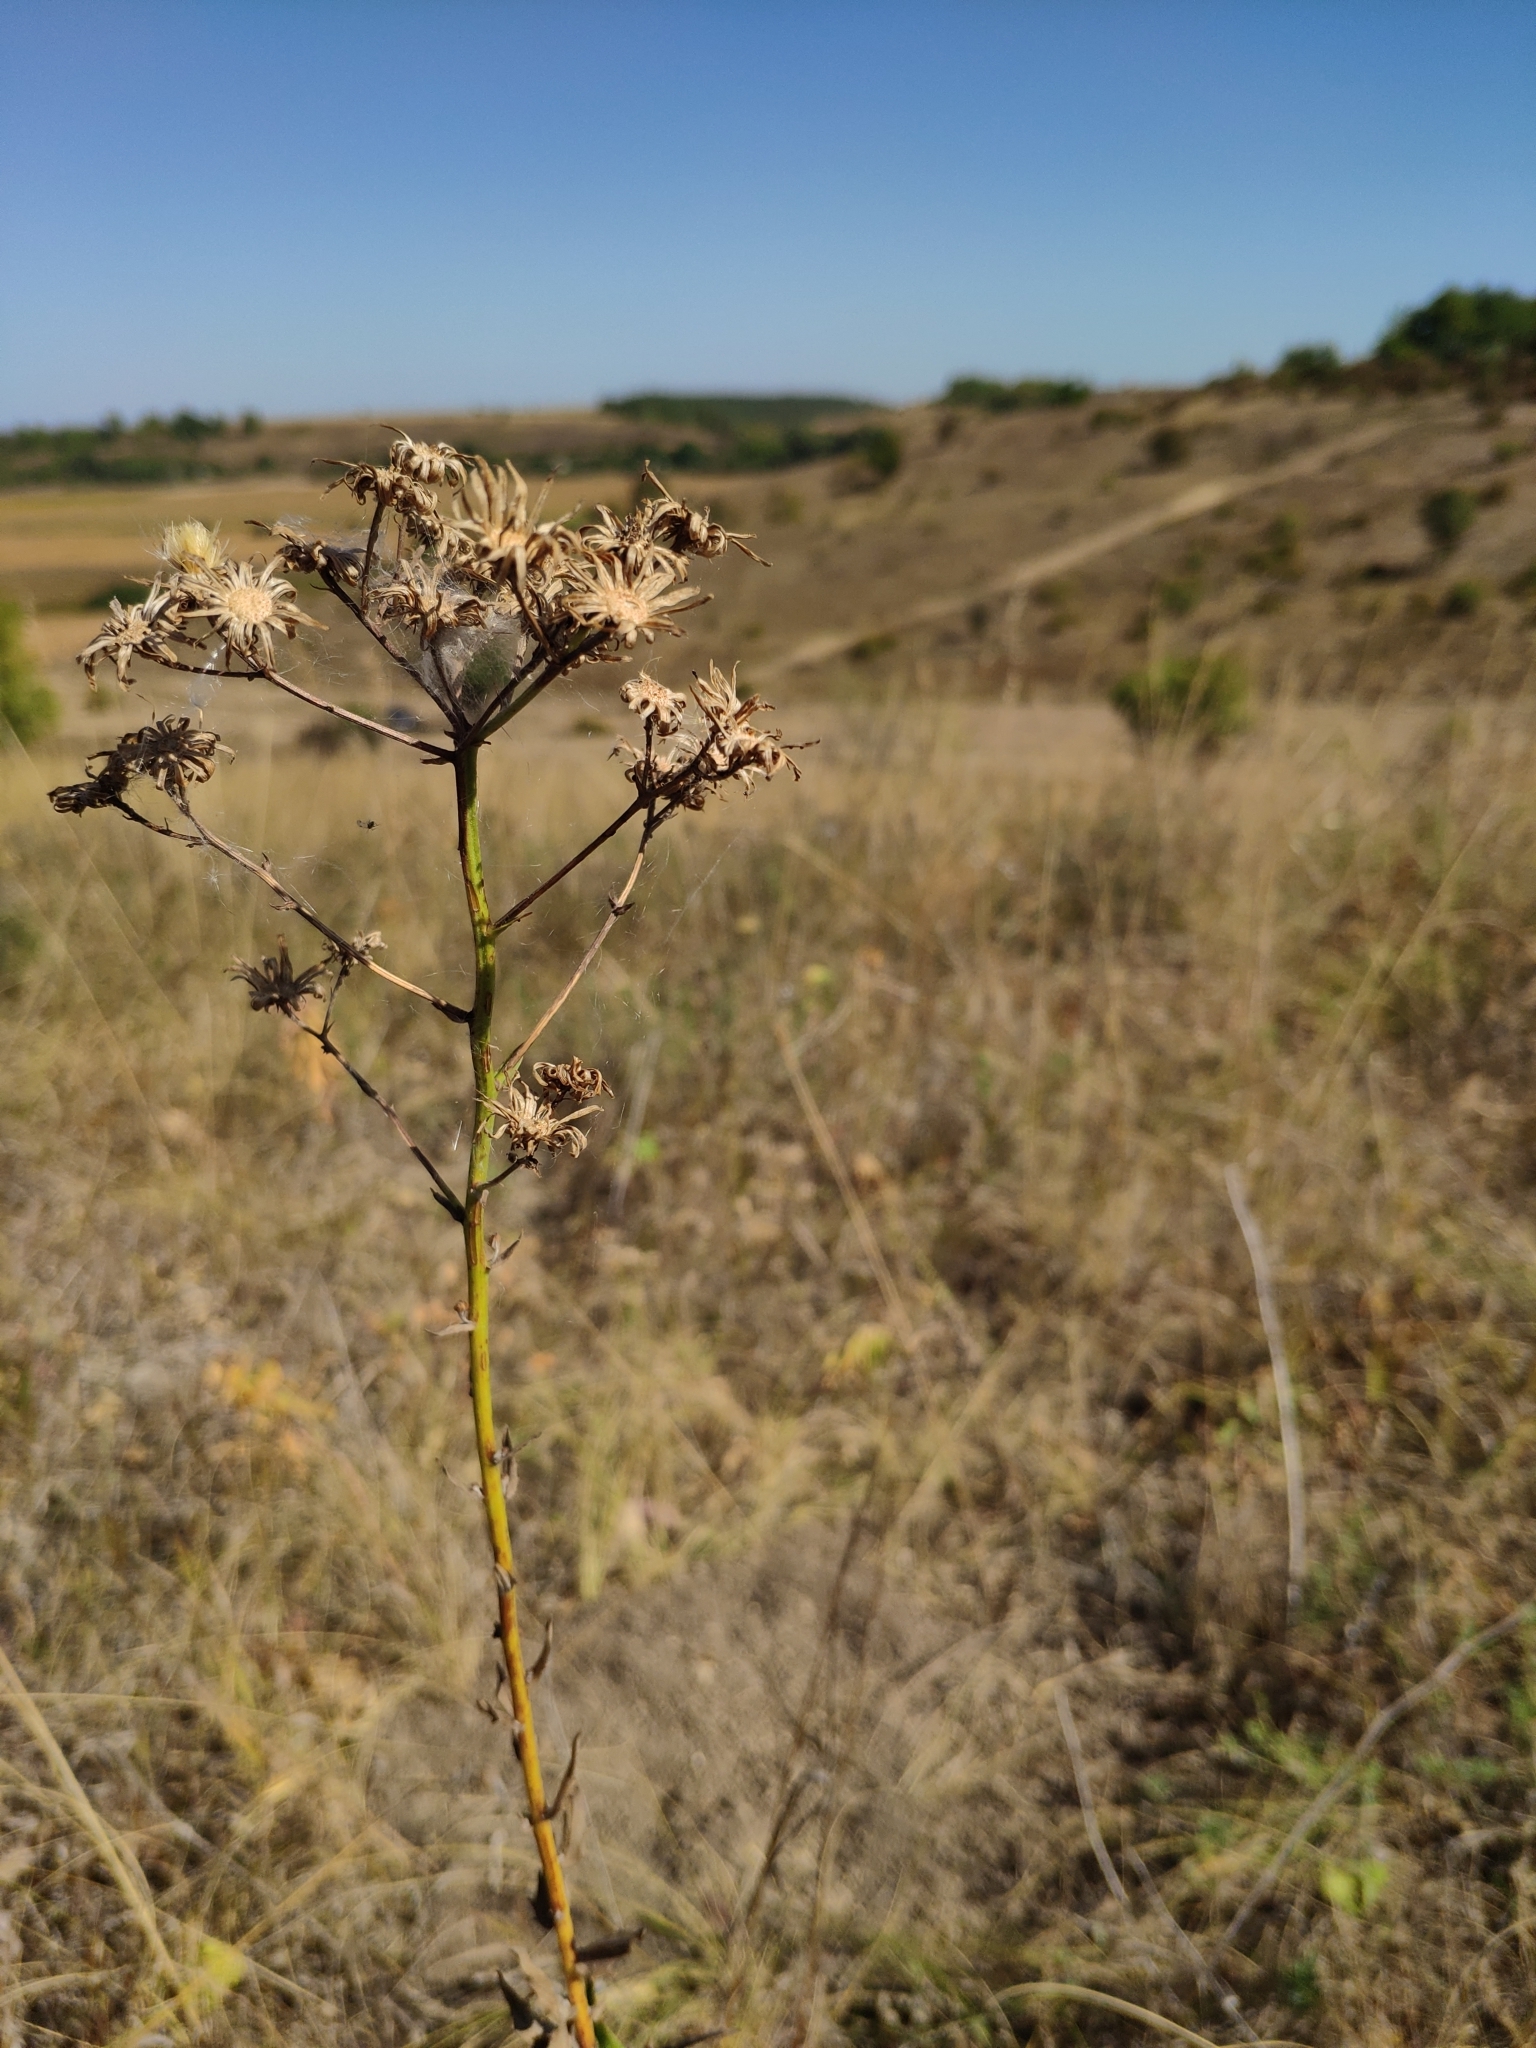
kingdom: Plantae
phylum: Tracheophyta
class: Magnoliopsida
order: Asterales
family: Asteraceae
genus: Hieracium
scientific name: Hieracium virosum
